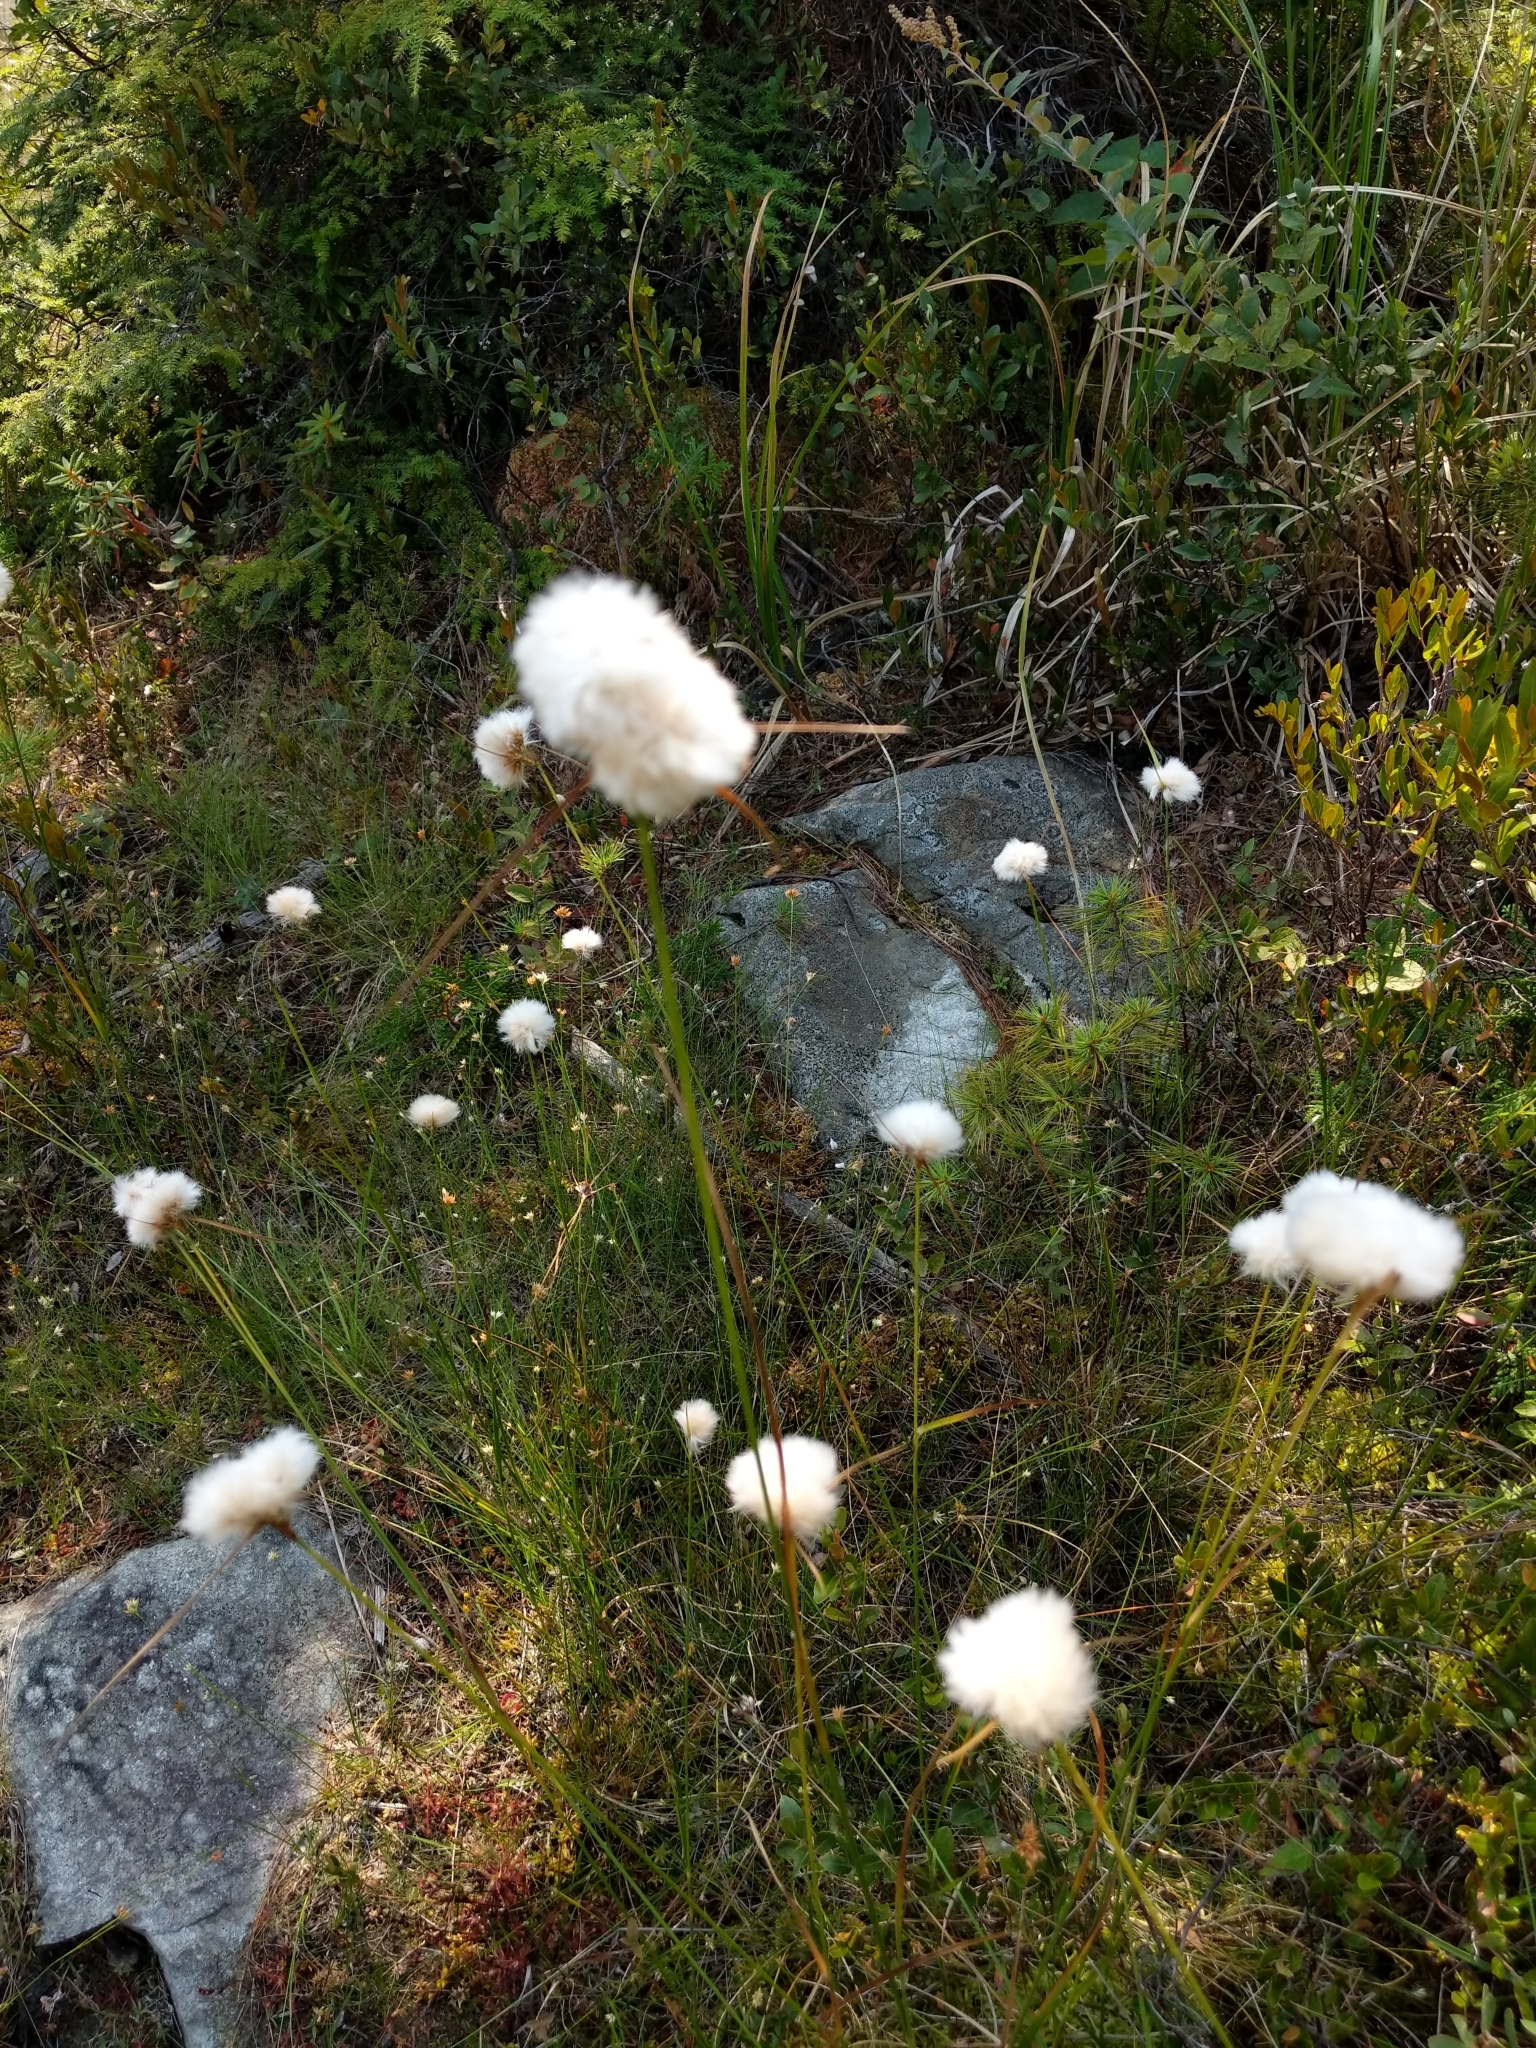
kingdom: Plantae
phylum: Tracheophyta
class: Liliopsida
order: Poales
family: Cyperaceae
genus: Eriophorum
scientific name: Eriophorum virginicum
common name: Tawny cottongrass
